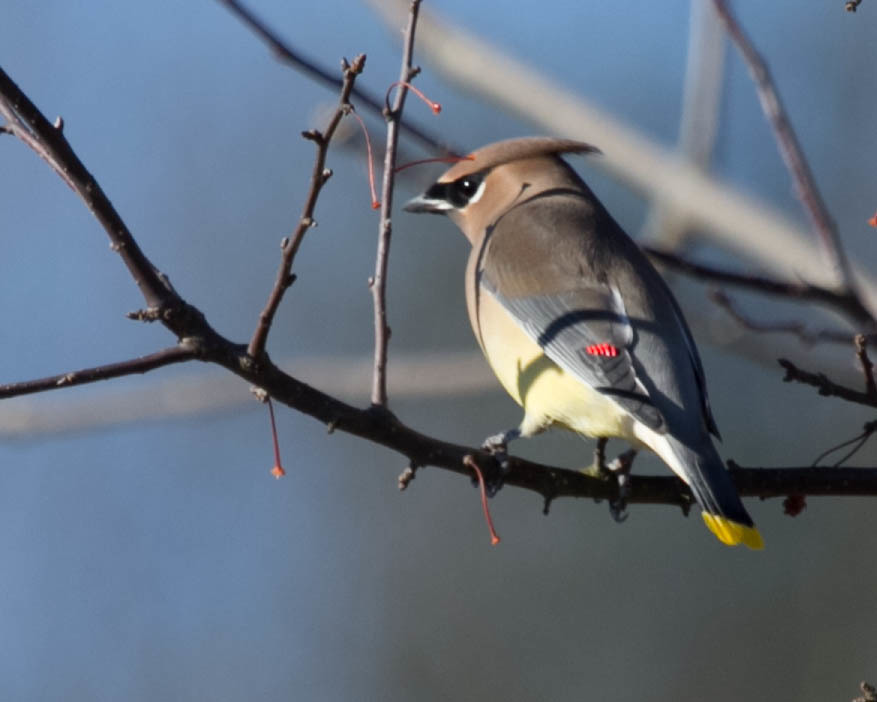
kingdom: Animalia
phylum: Chordata
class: Aves
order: Passeriformes
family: Bombycillidae
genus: Bombycilla
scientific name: Bombycilla cedrorum
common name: Cedar waxwing
